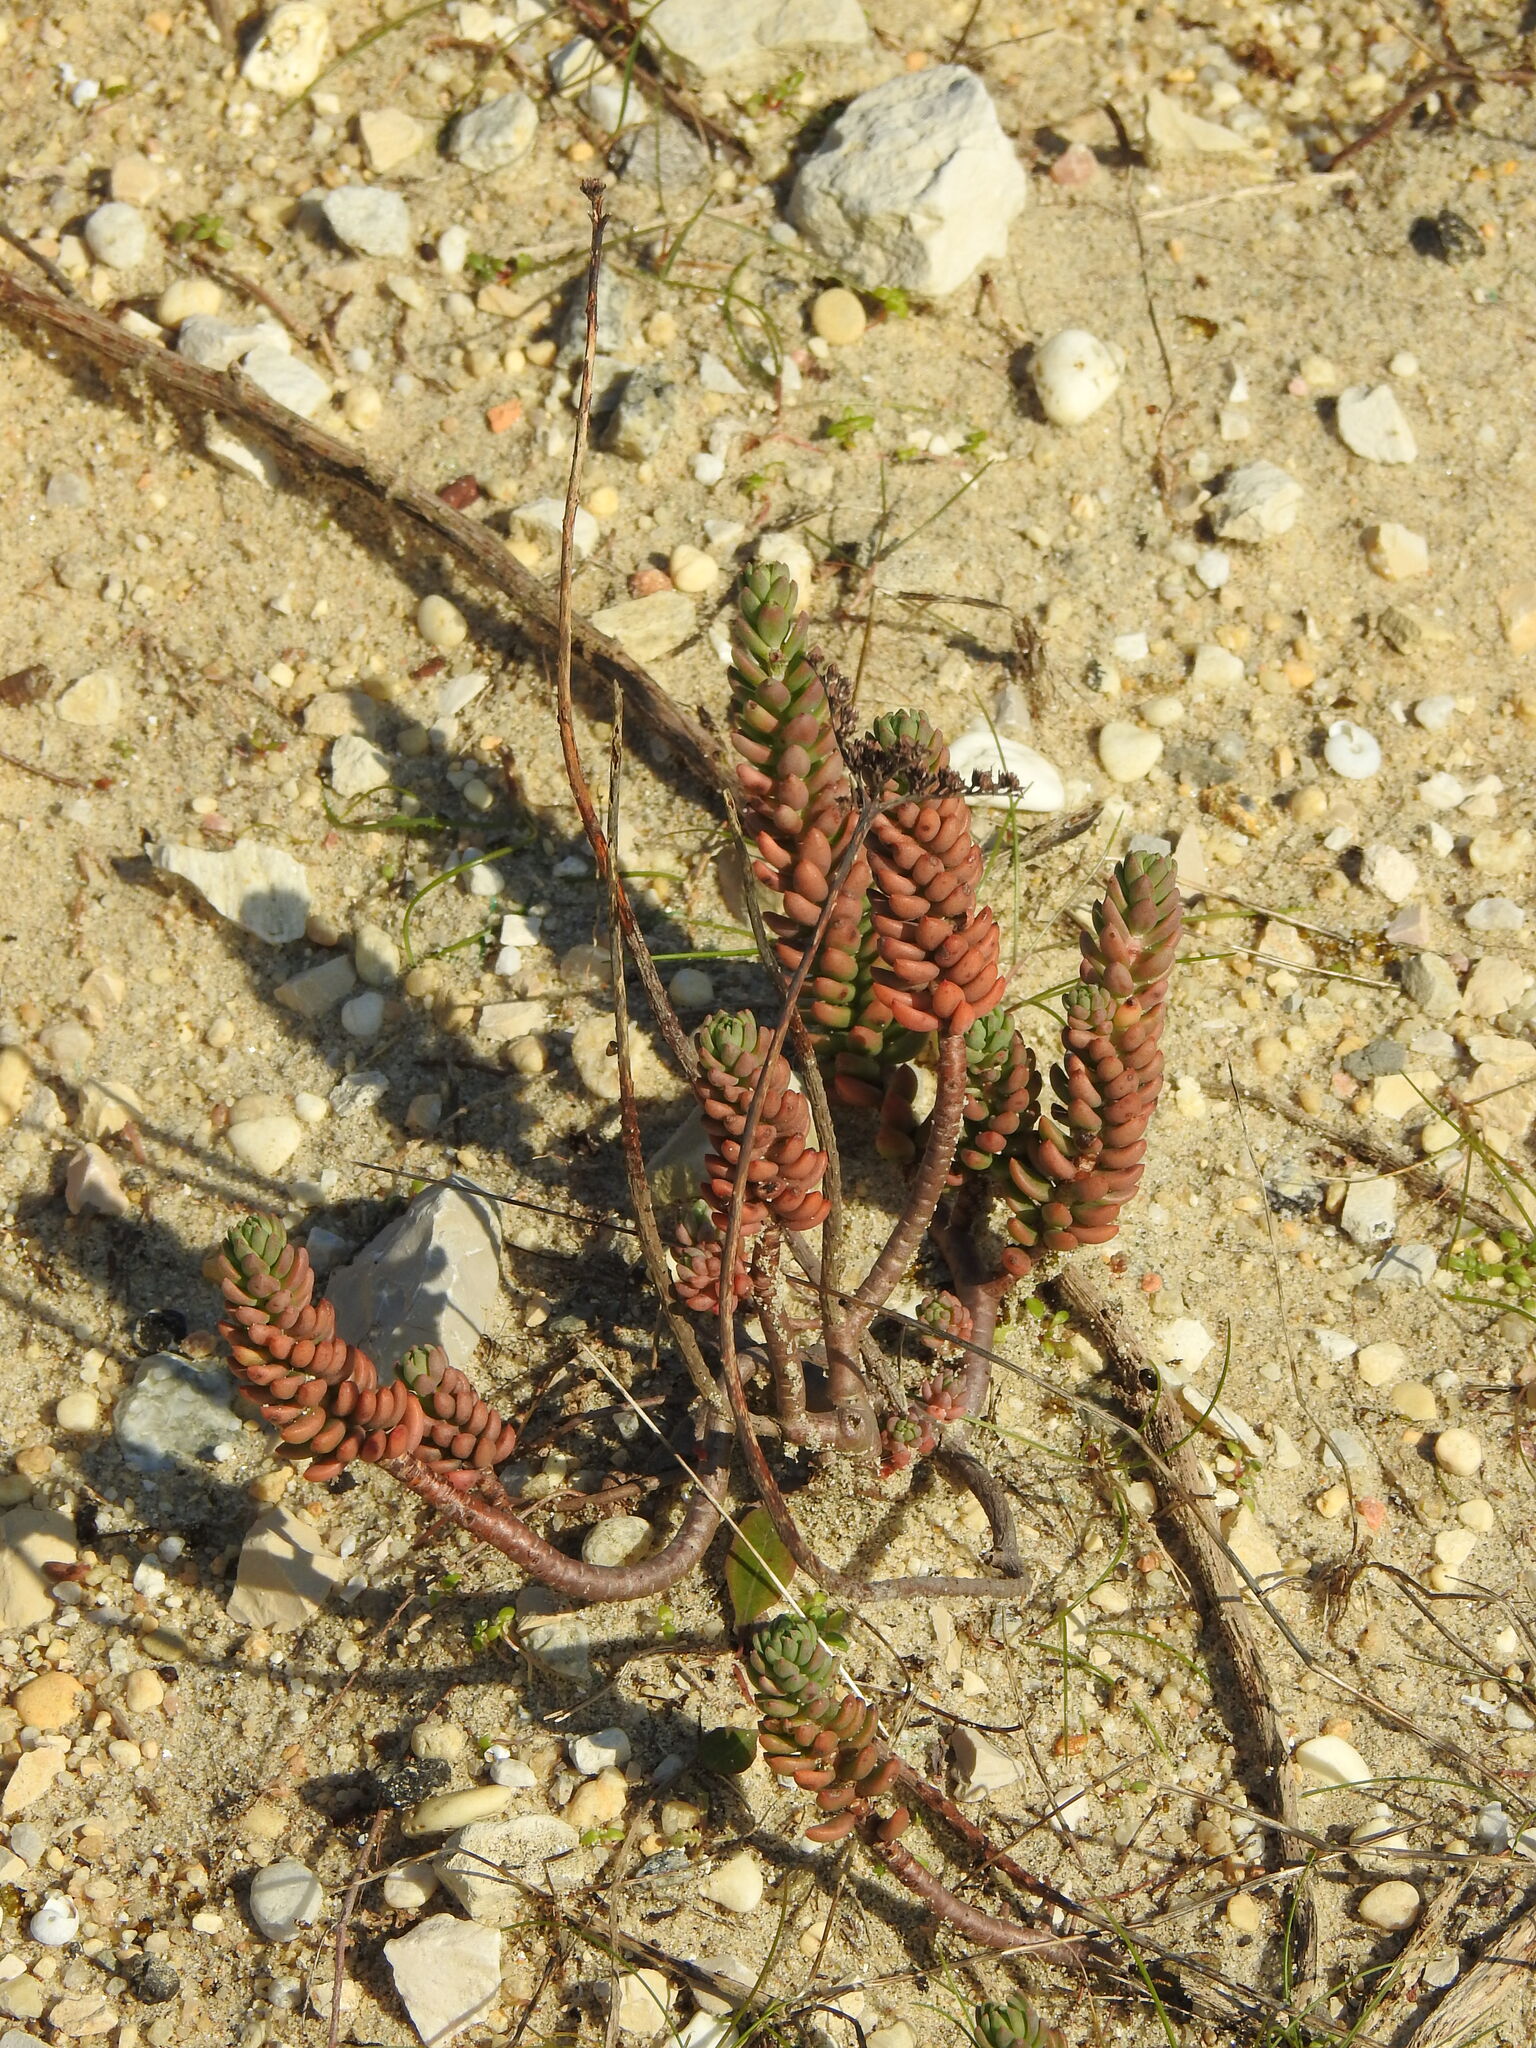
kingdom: Plantae
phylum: Tracheophyta
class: Magnoliopsida
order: Saxifragales
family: Crassulaceae
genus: Petrosedum
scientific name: Petrosedum sediforme
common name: Pale stonecrop
